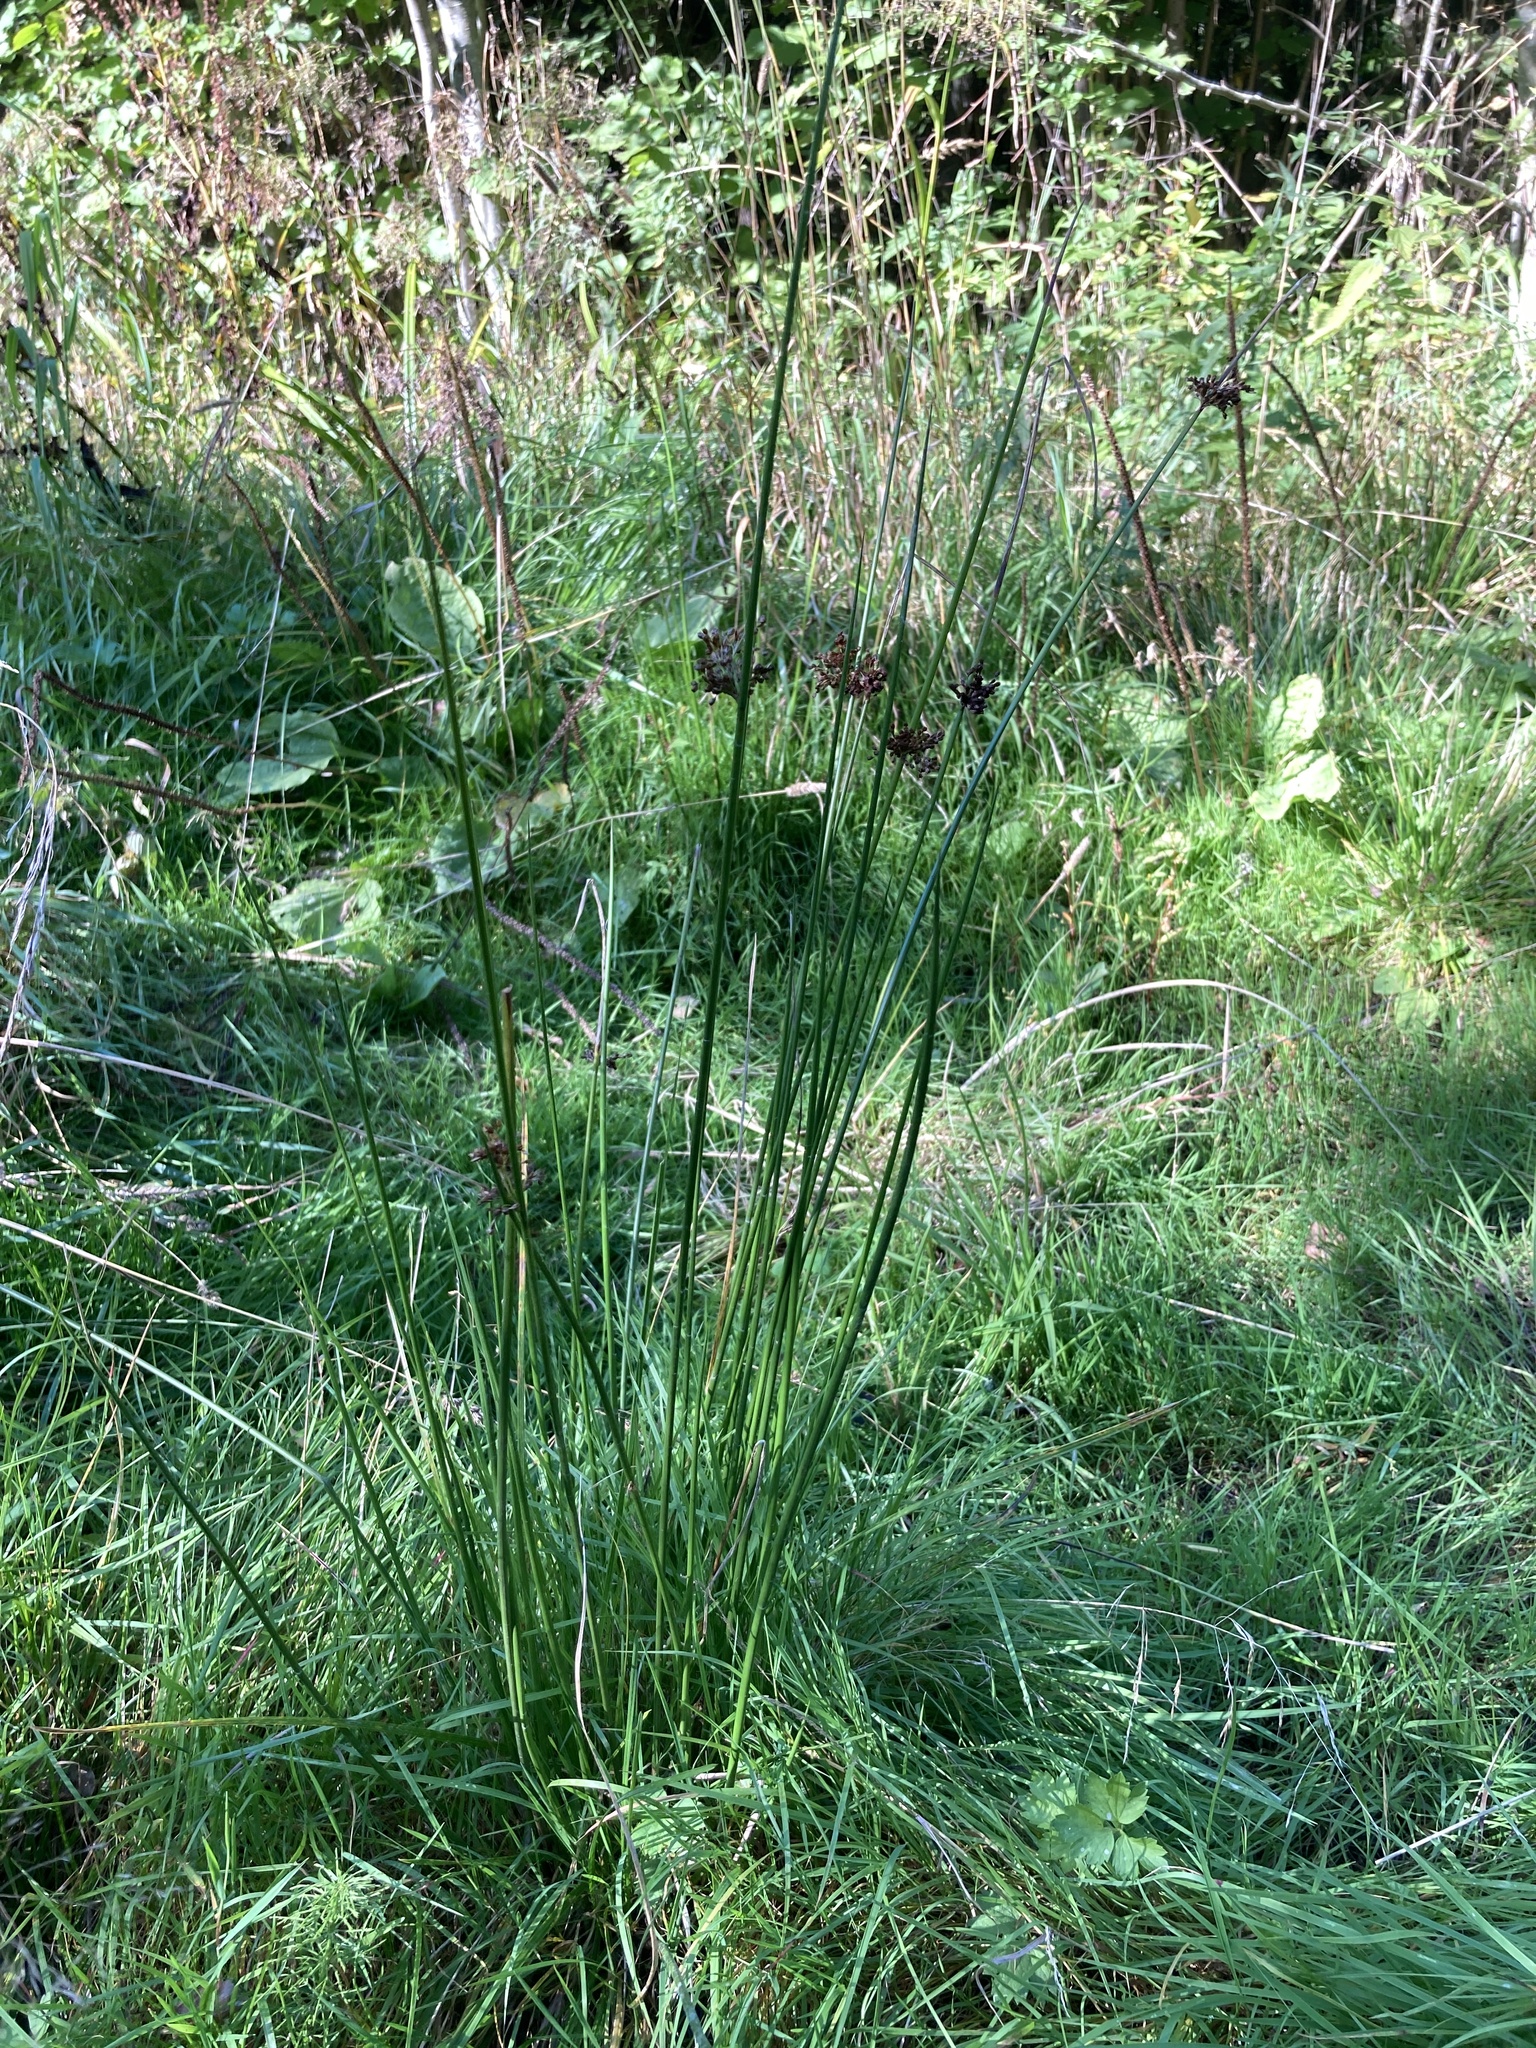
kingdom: Plantae
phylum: Tracheophyta
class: Liliopsida
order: Poales
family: Juncaceae
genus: Juncus
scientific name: Juncus effusus
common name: Soft rush
